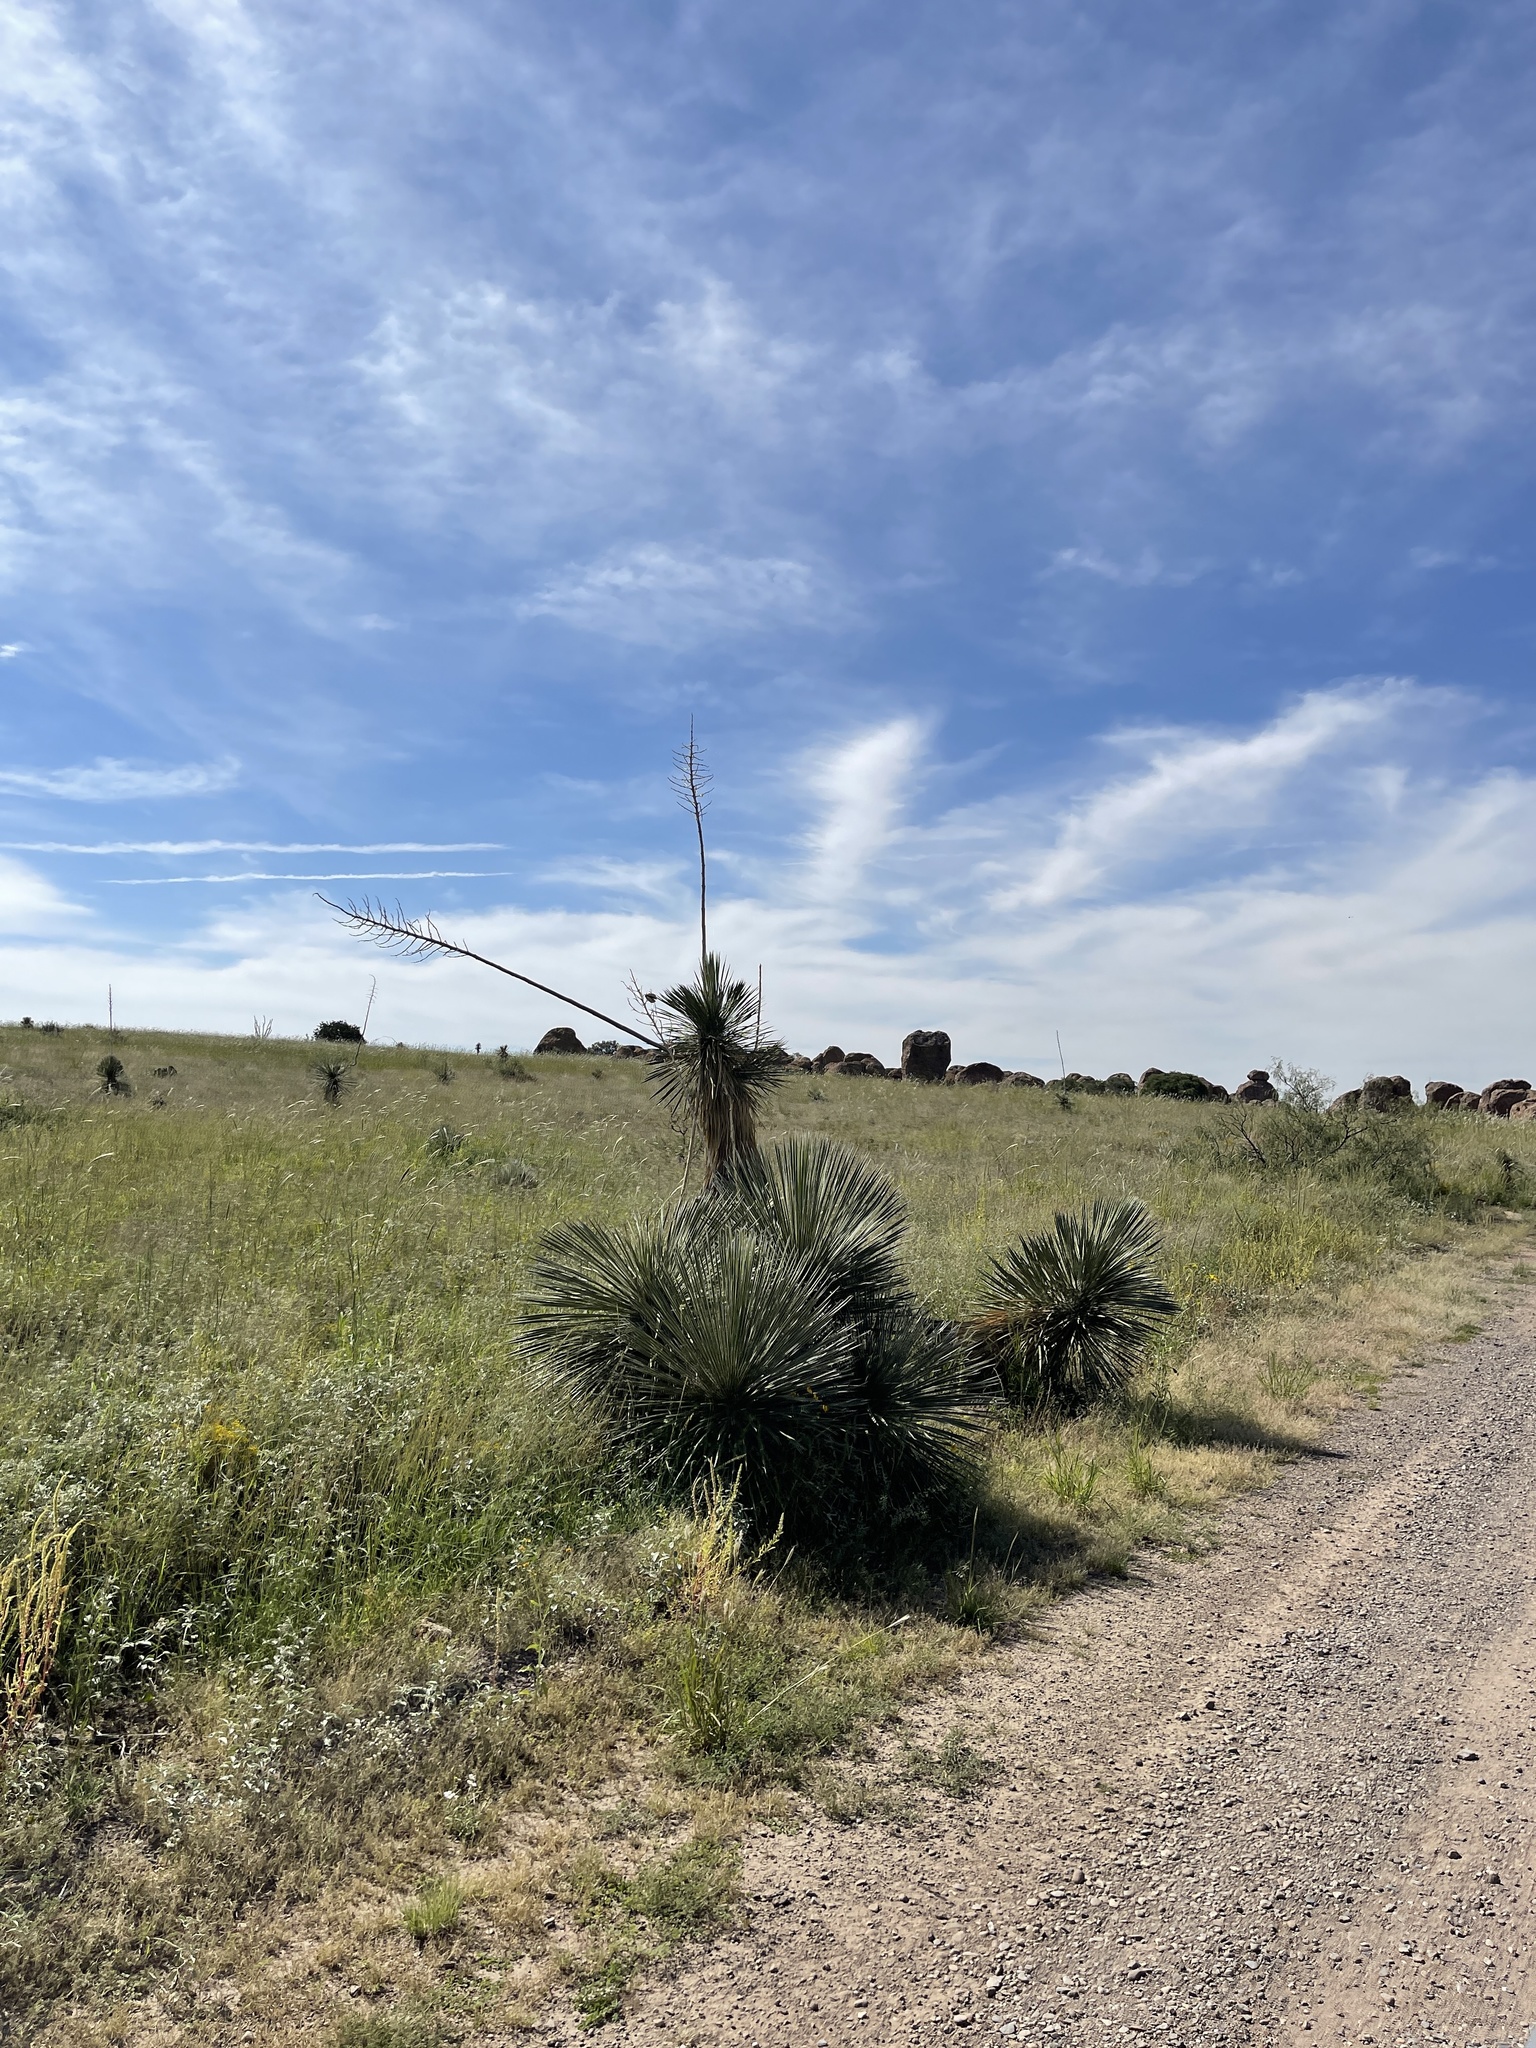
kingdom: Plantae
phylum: Tracheophyta
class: Liliopsida
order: Asparagales
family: Asparagaceae
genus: Yucca
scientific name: Yucca elata
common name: Palmella
